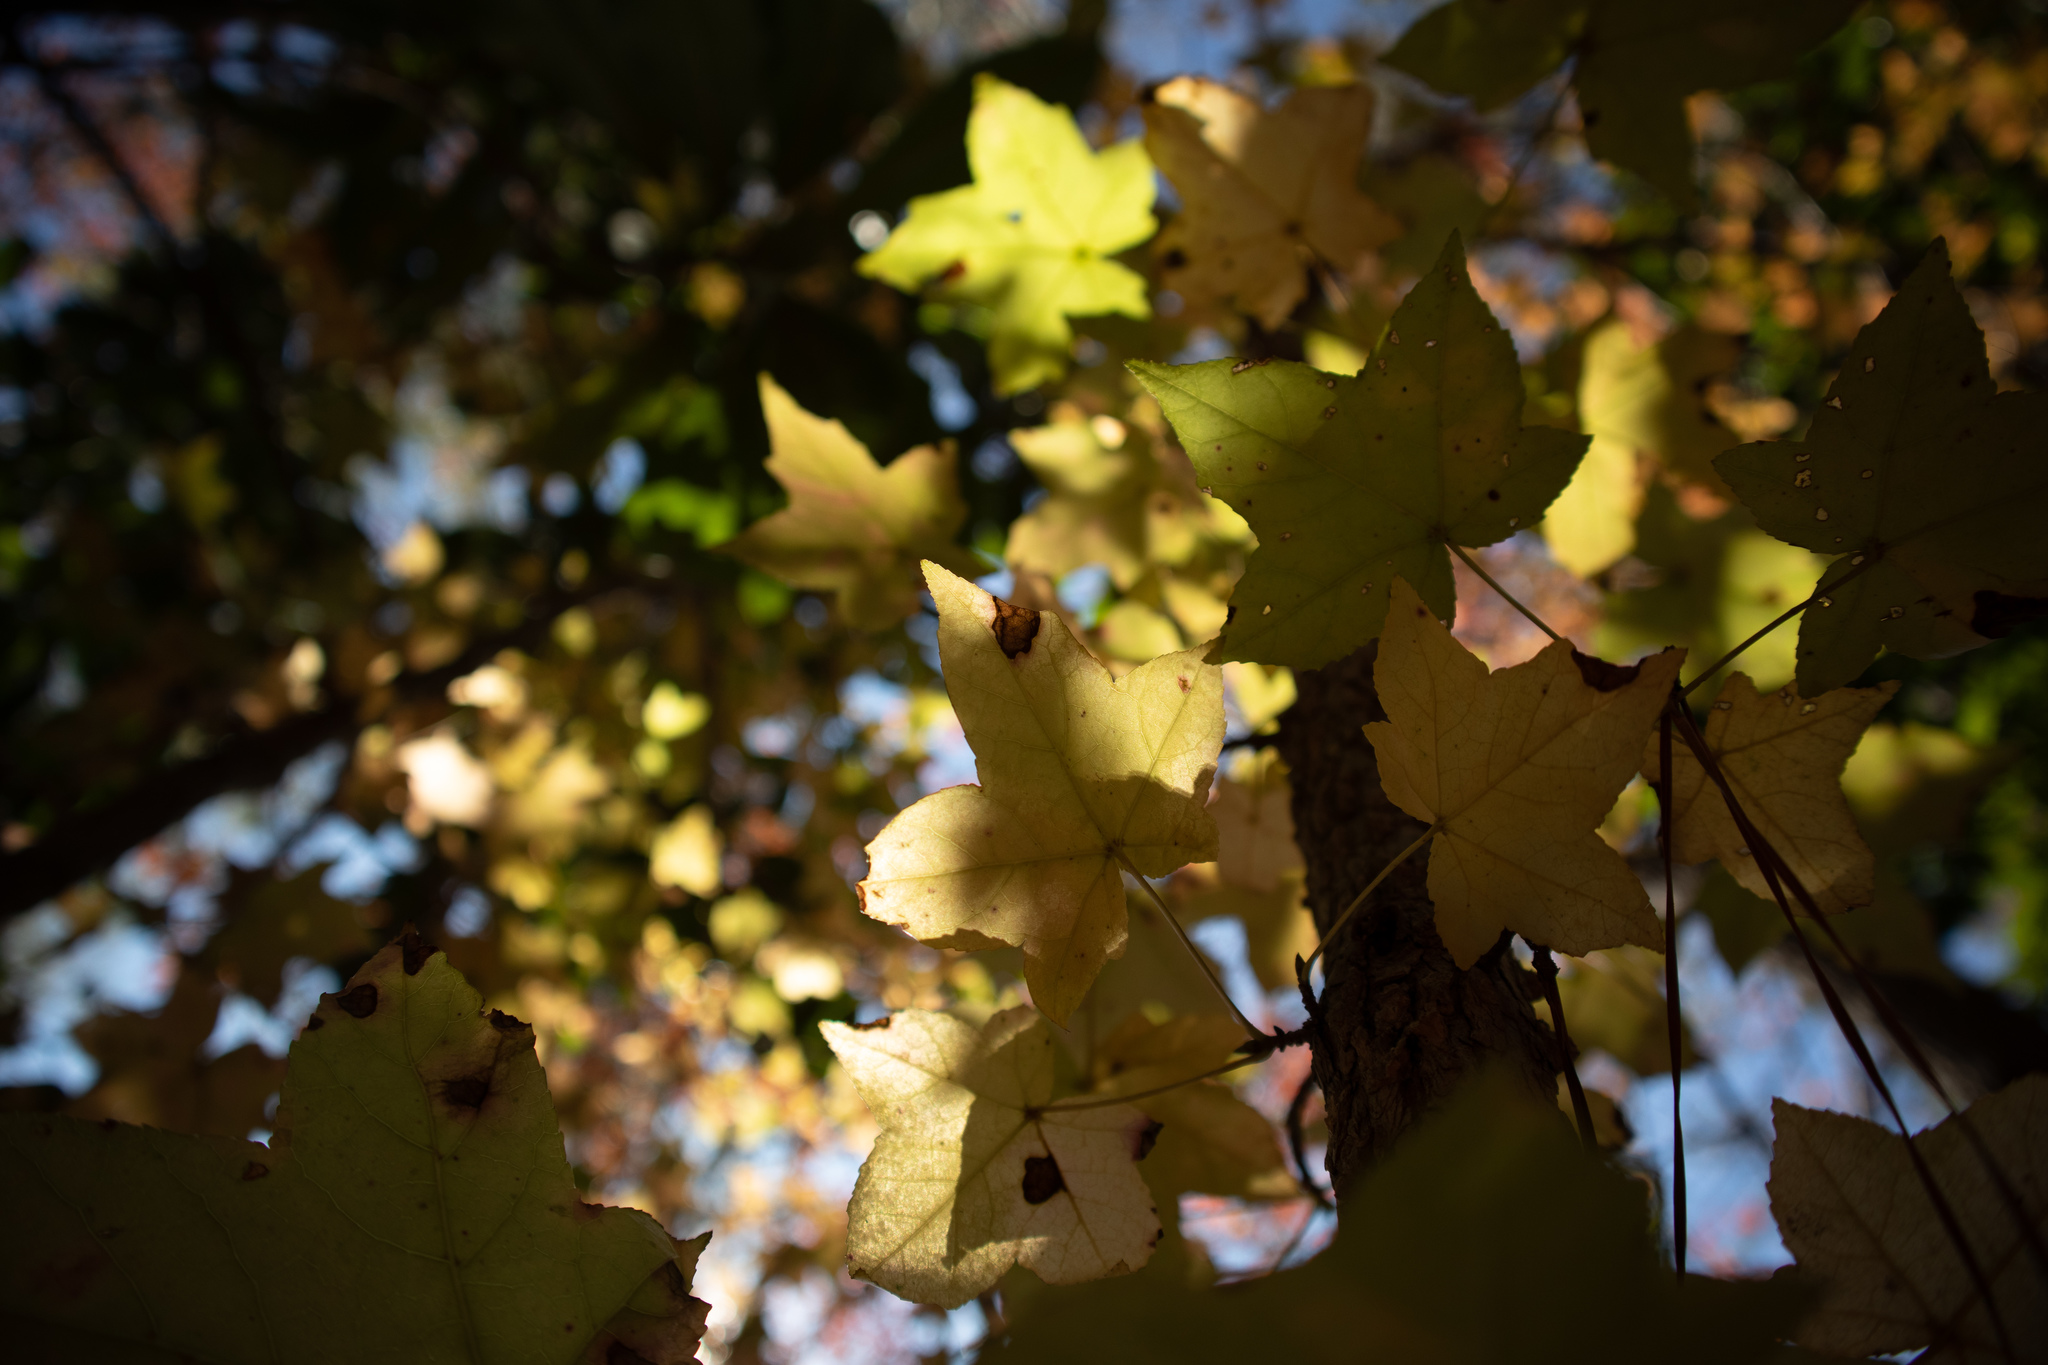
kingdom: Plantae
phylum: Tracheophyta
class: Magnoliopsida
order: Saxifragales
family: Altingiaceae
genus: Liquidambar
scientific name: Liquidambar styraciflua
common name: Sweet gum
